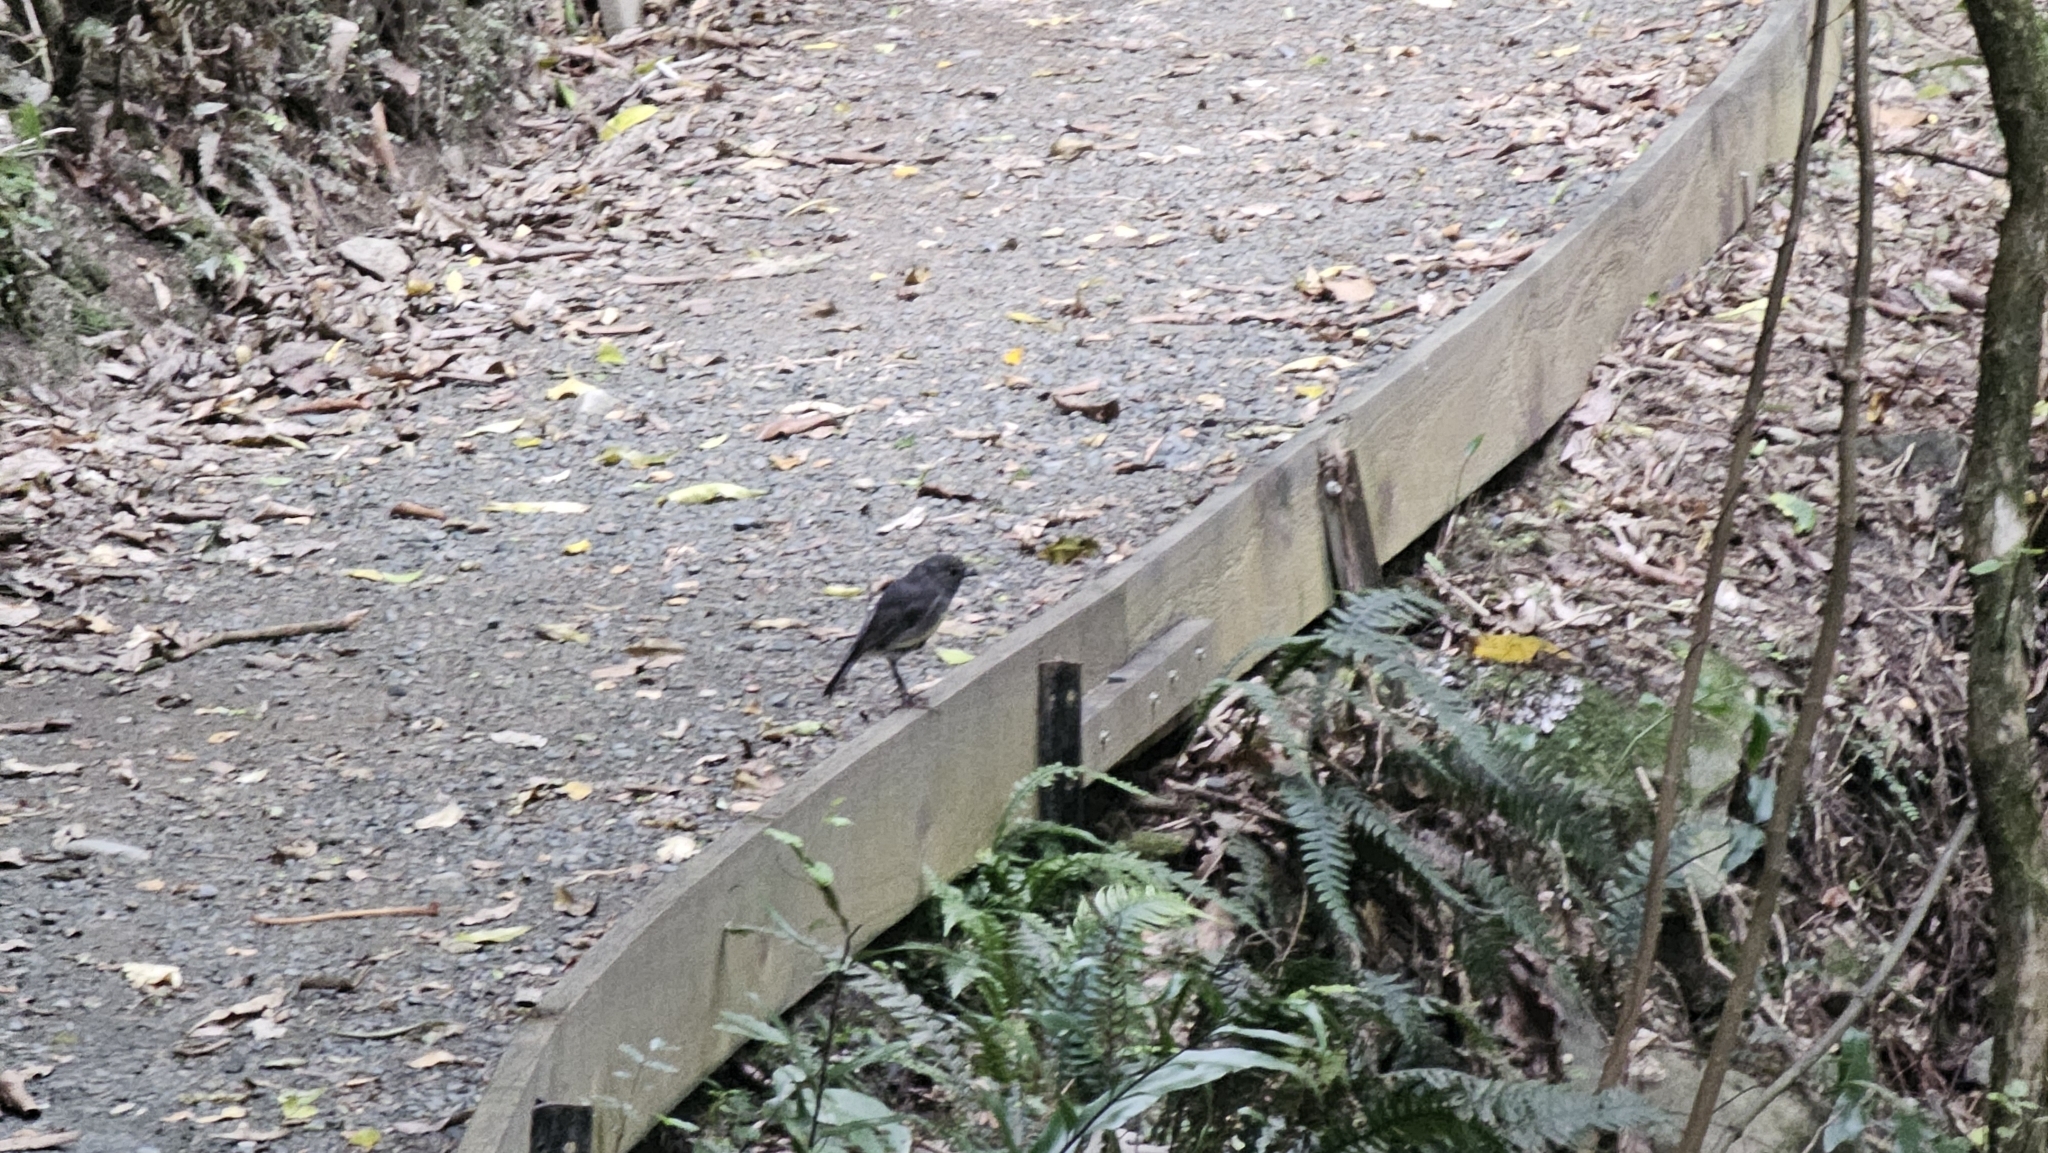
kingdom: Animalia
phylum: Chordata
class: Aves
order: Passeriformes
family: Petroicidae
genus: Petroica
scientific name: Petroica australis
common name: New zealand robin
